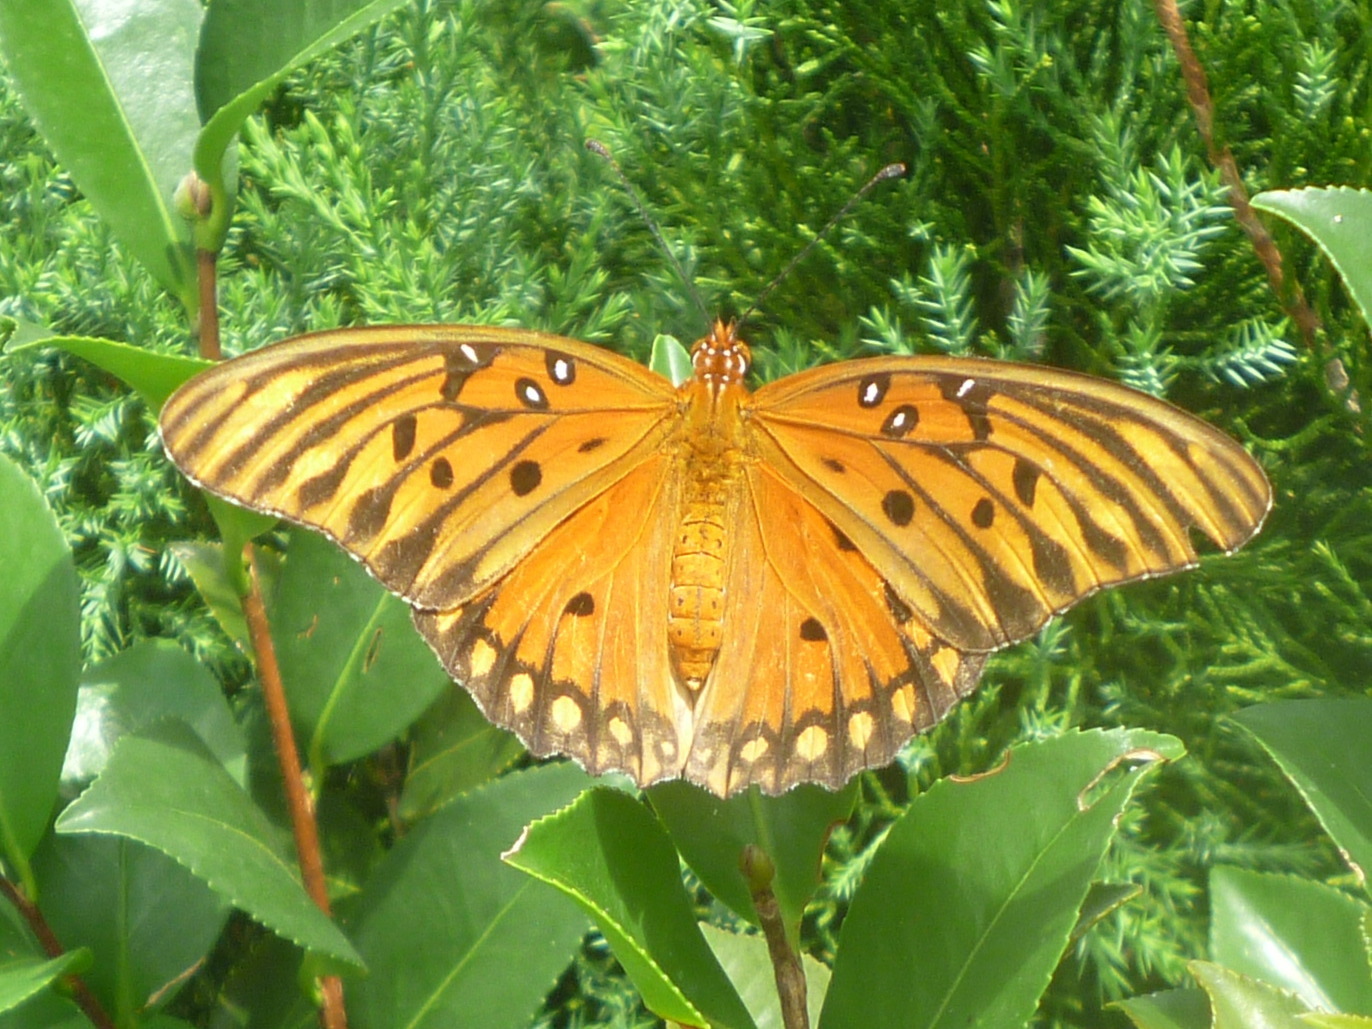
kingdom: Animalia
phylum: Arthropoda
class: Insecta
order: Lepidoptera
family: Nymphalidae
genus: Dione
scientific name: Dione vanillae
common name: Gulf fritillary
